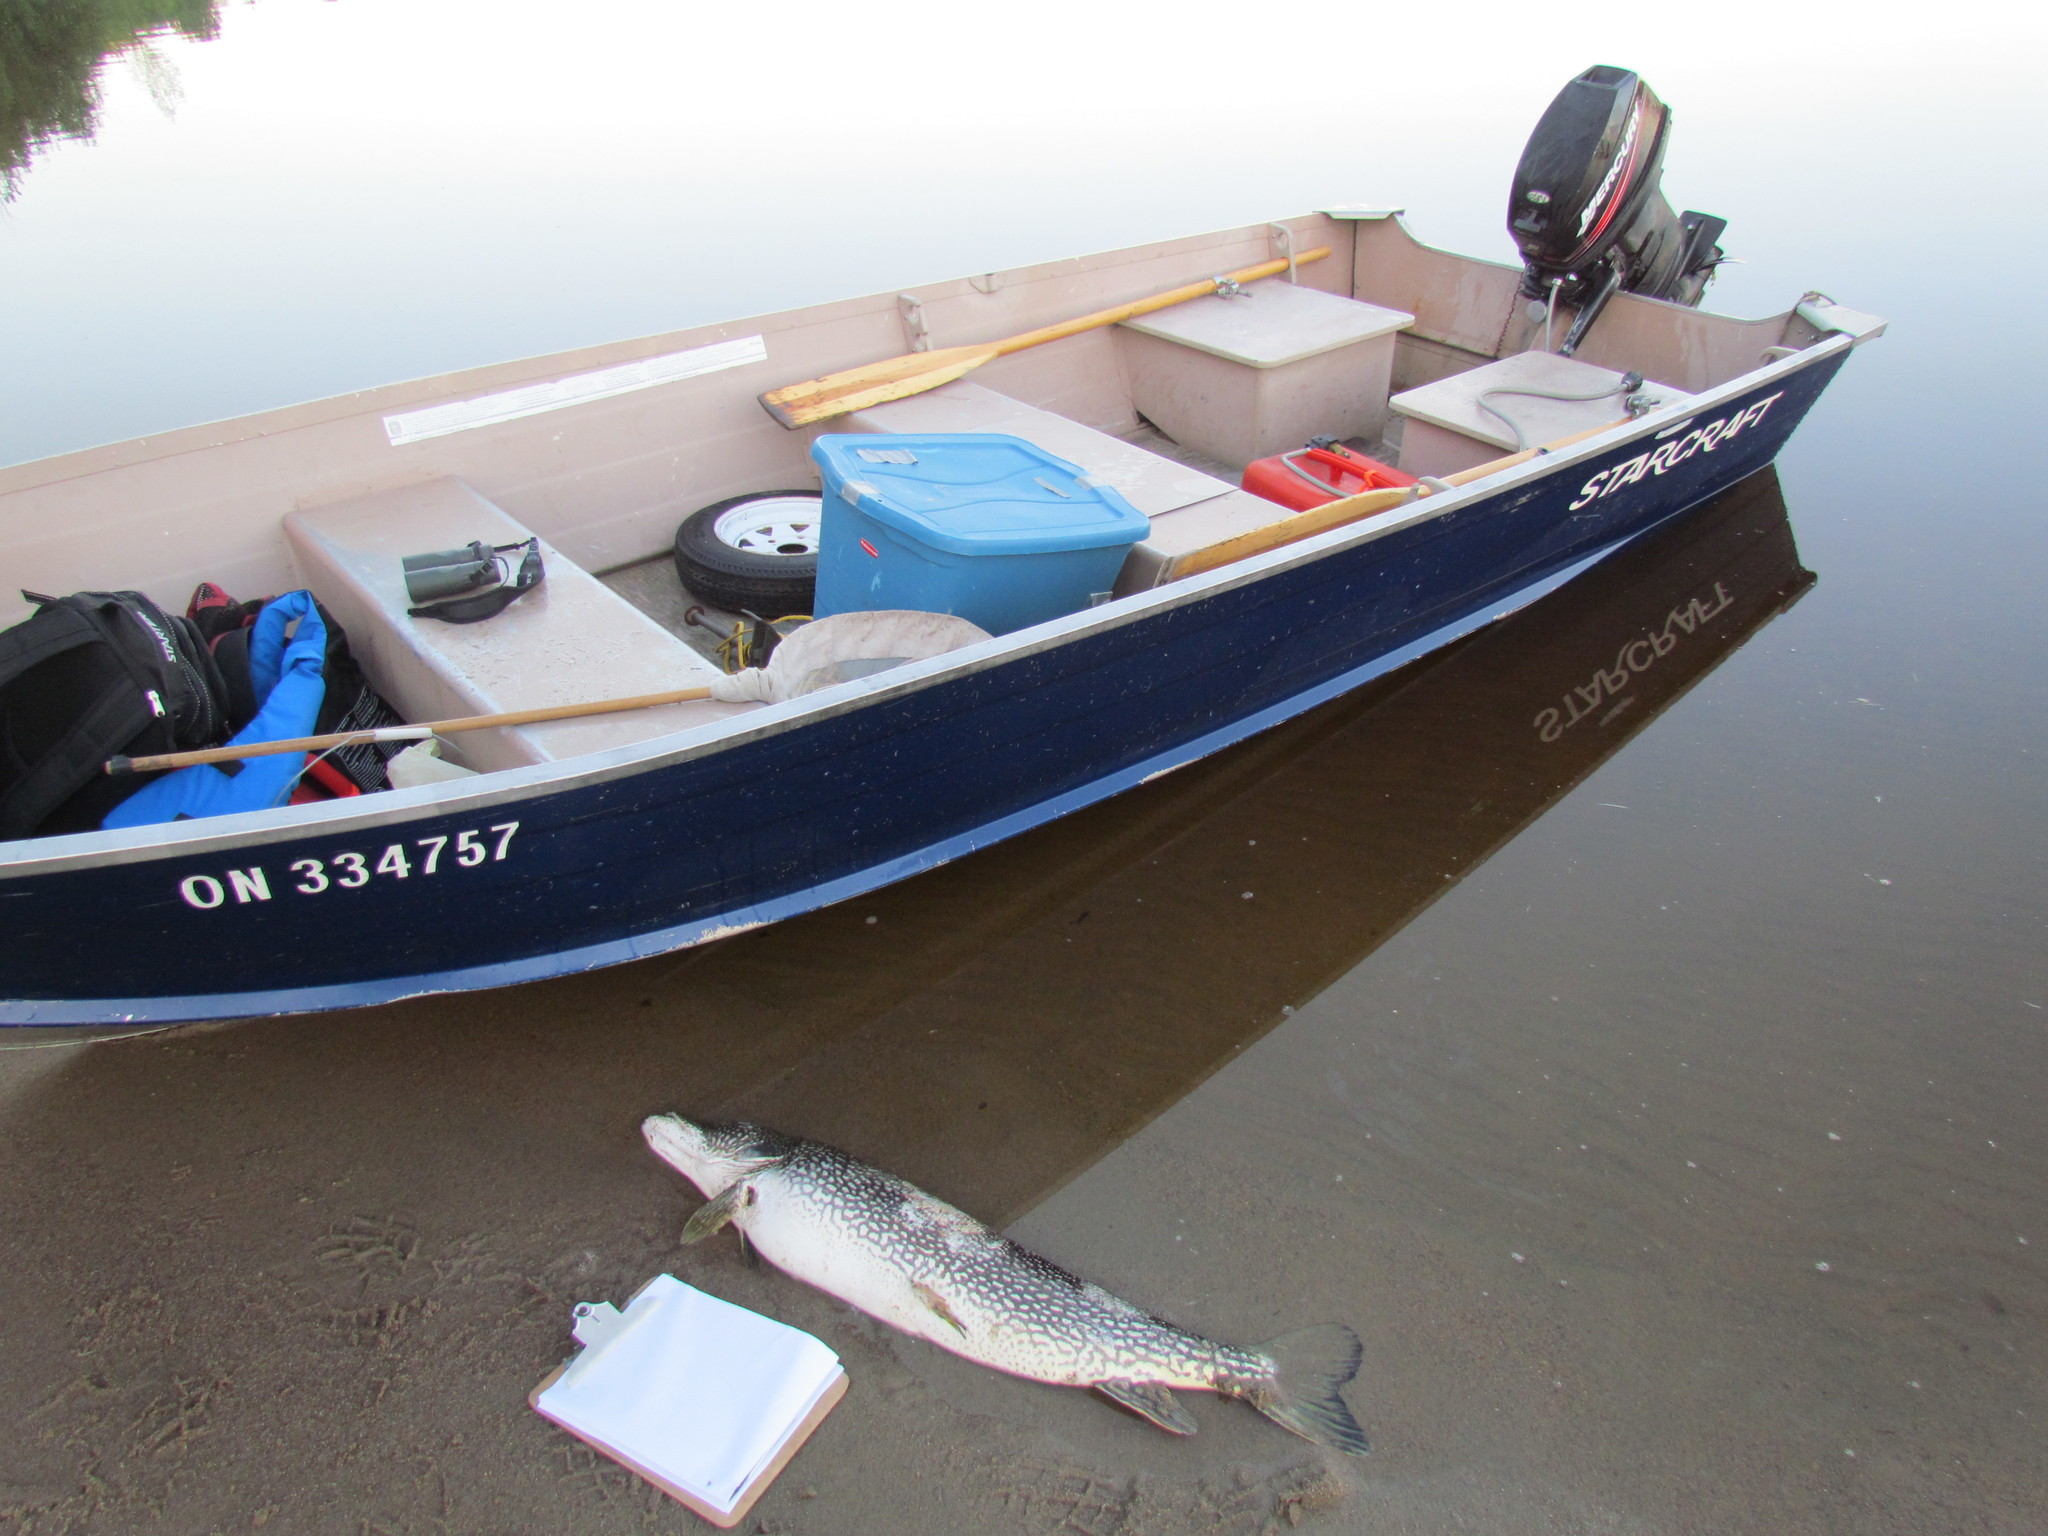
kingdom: Animalia
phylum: Chordata
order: Esociformes
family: Esocidae
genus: Esox
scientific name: Esox lucius
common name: Northern pike
